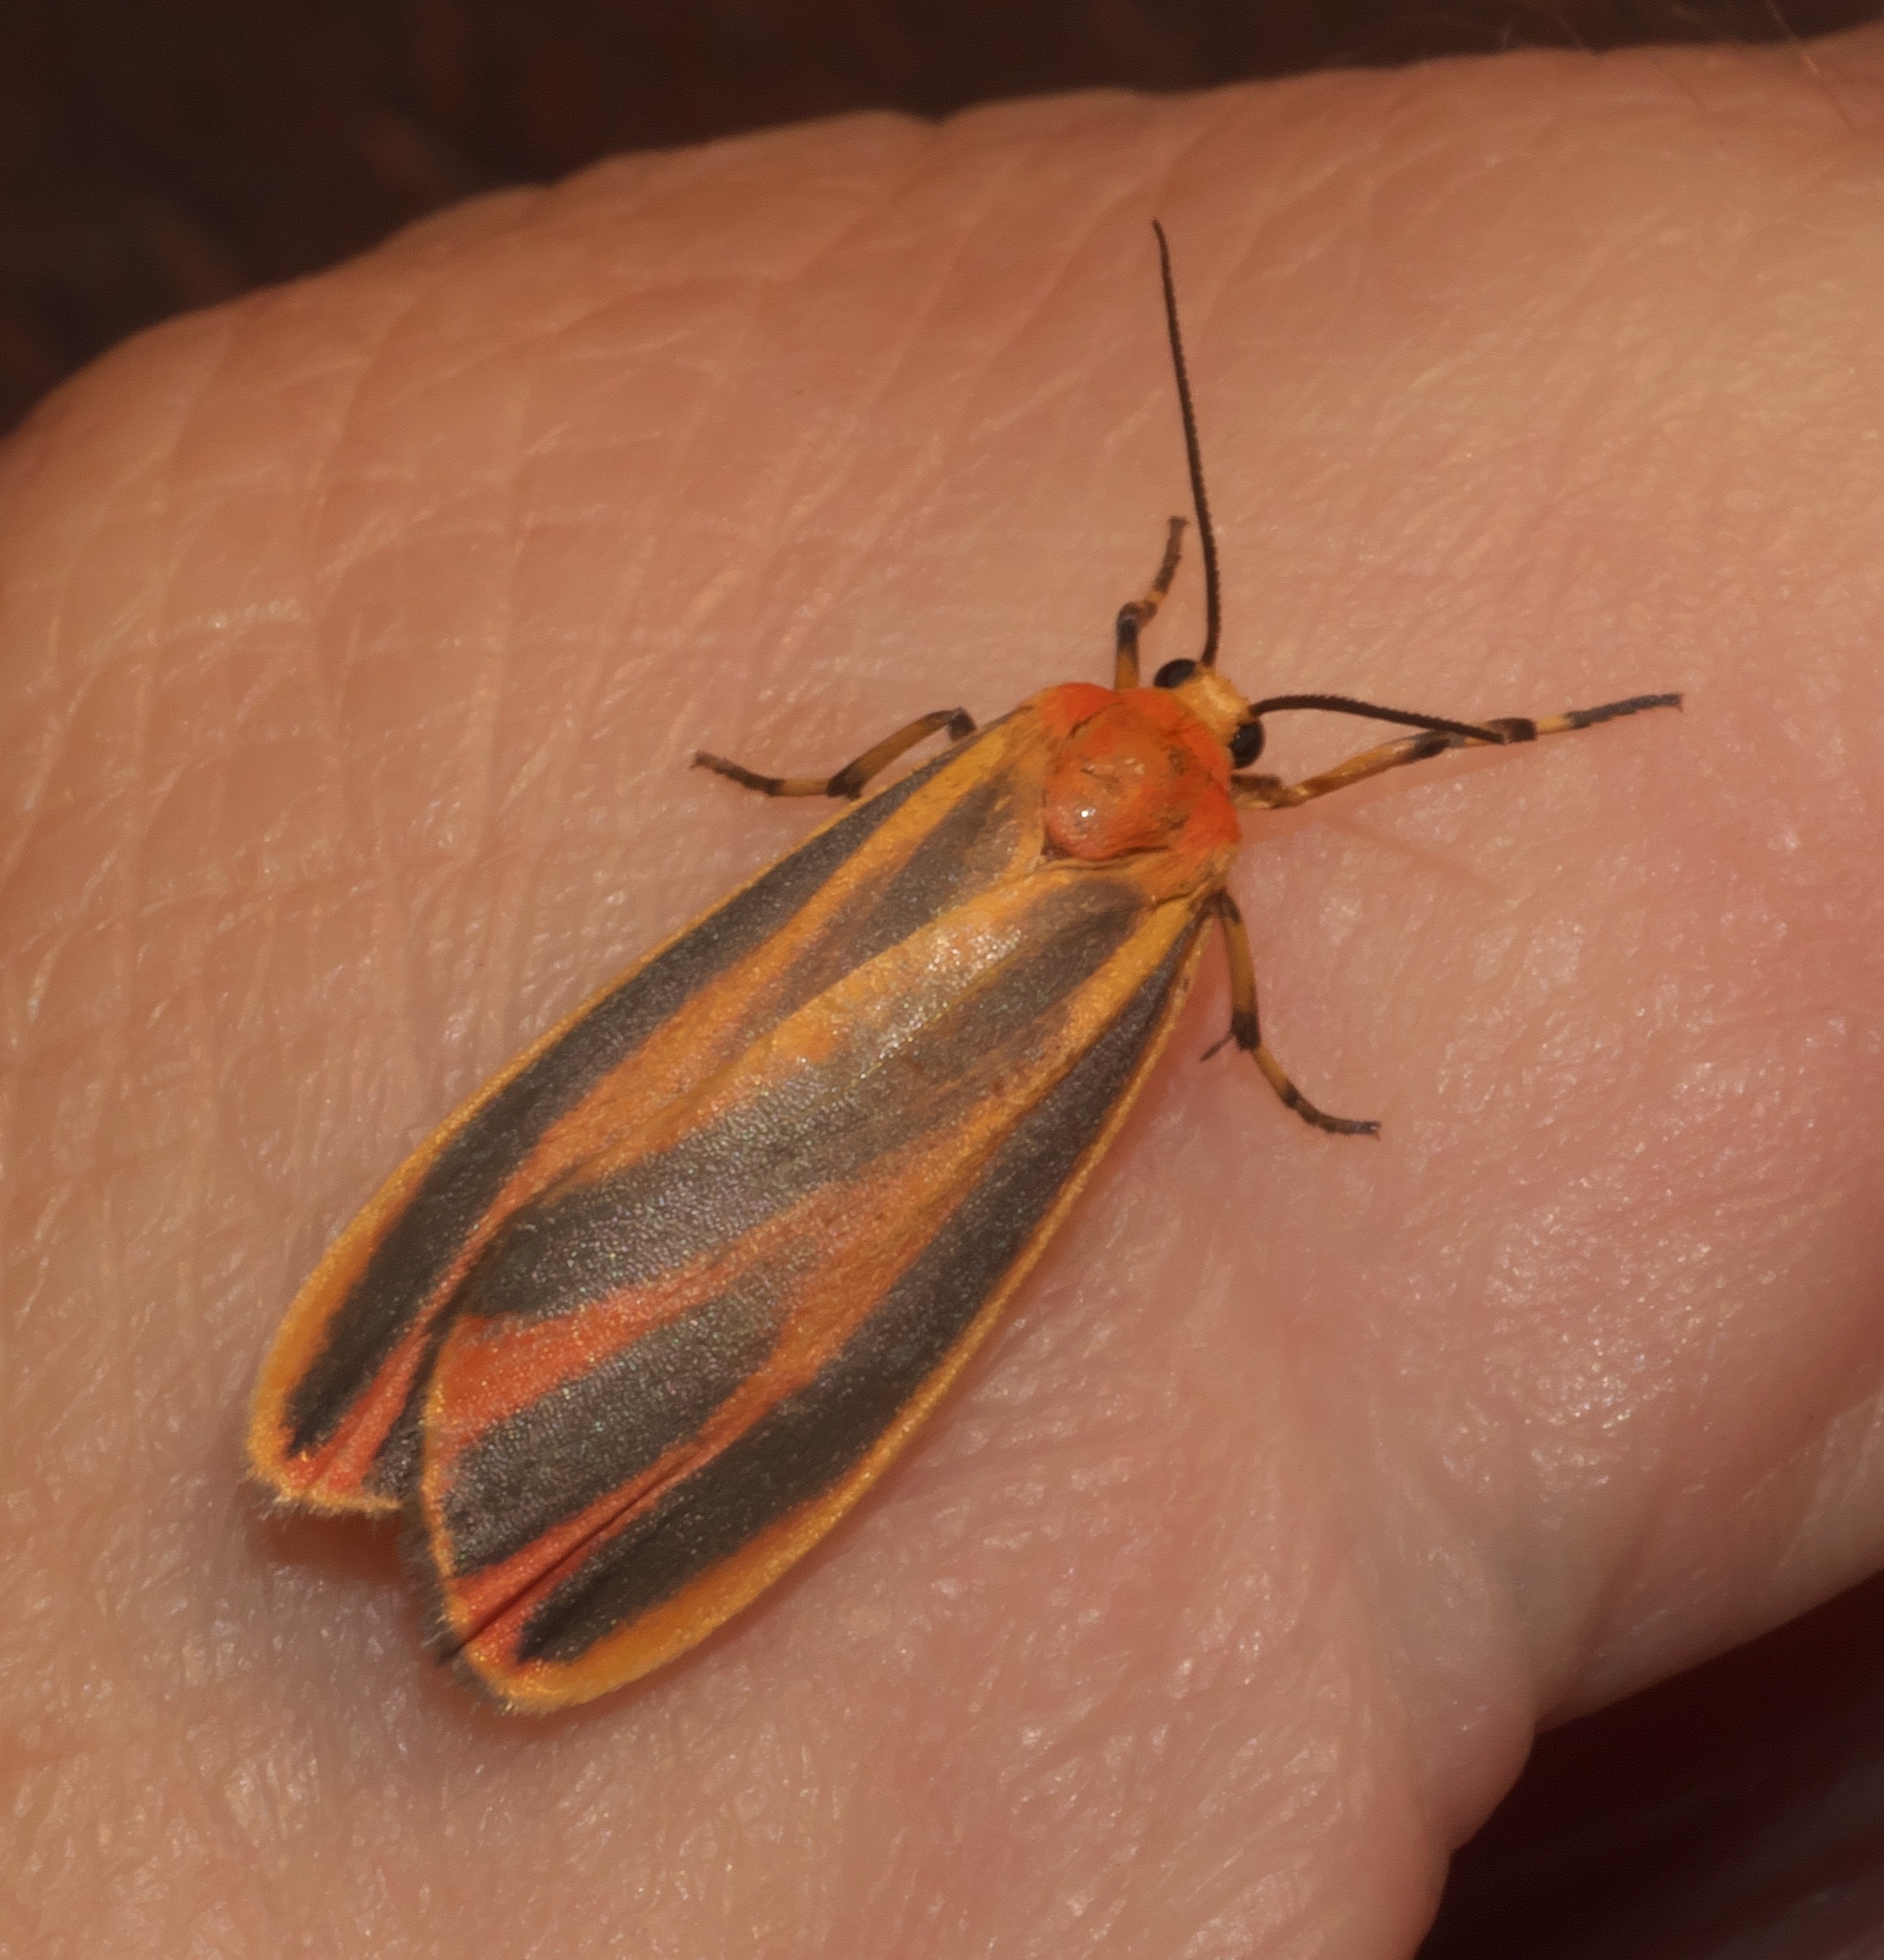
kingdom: Animalia
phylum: Arthropoda
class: Insecta
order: Lepidoptera
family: Erebidae
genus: Hypoprepia
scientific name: Hypoprepia fucosa
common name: Painted lichen moth
